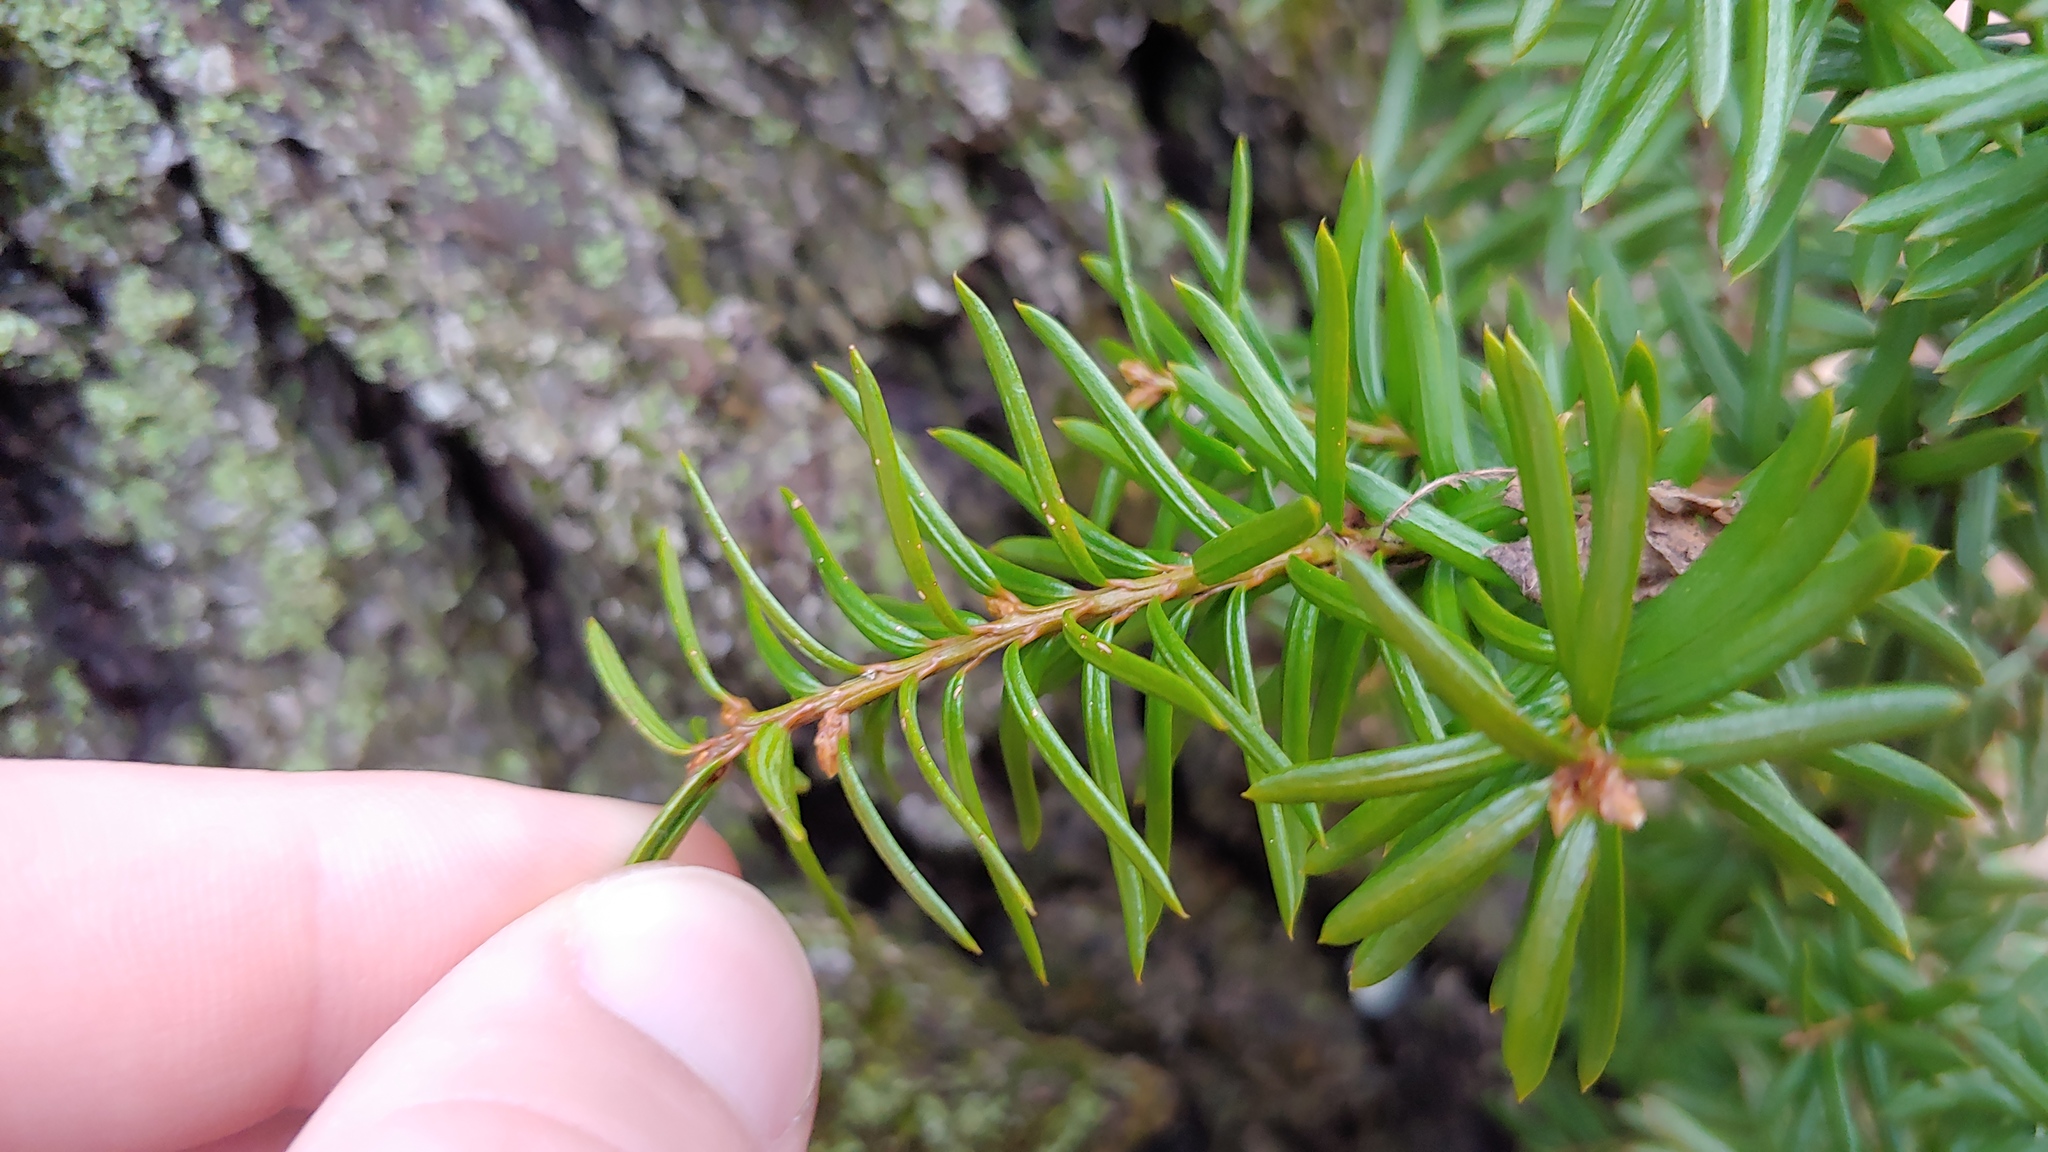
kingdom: Plantae
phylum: Tracheophyta
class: Pinopsida
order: Pinales
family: Taxaceae
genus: Taxus
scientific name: Taxus cuspidata
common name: Japanese yew
